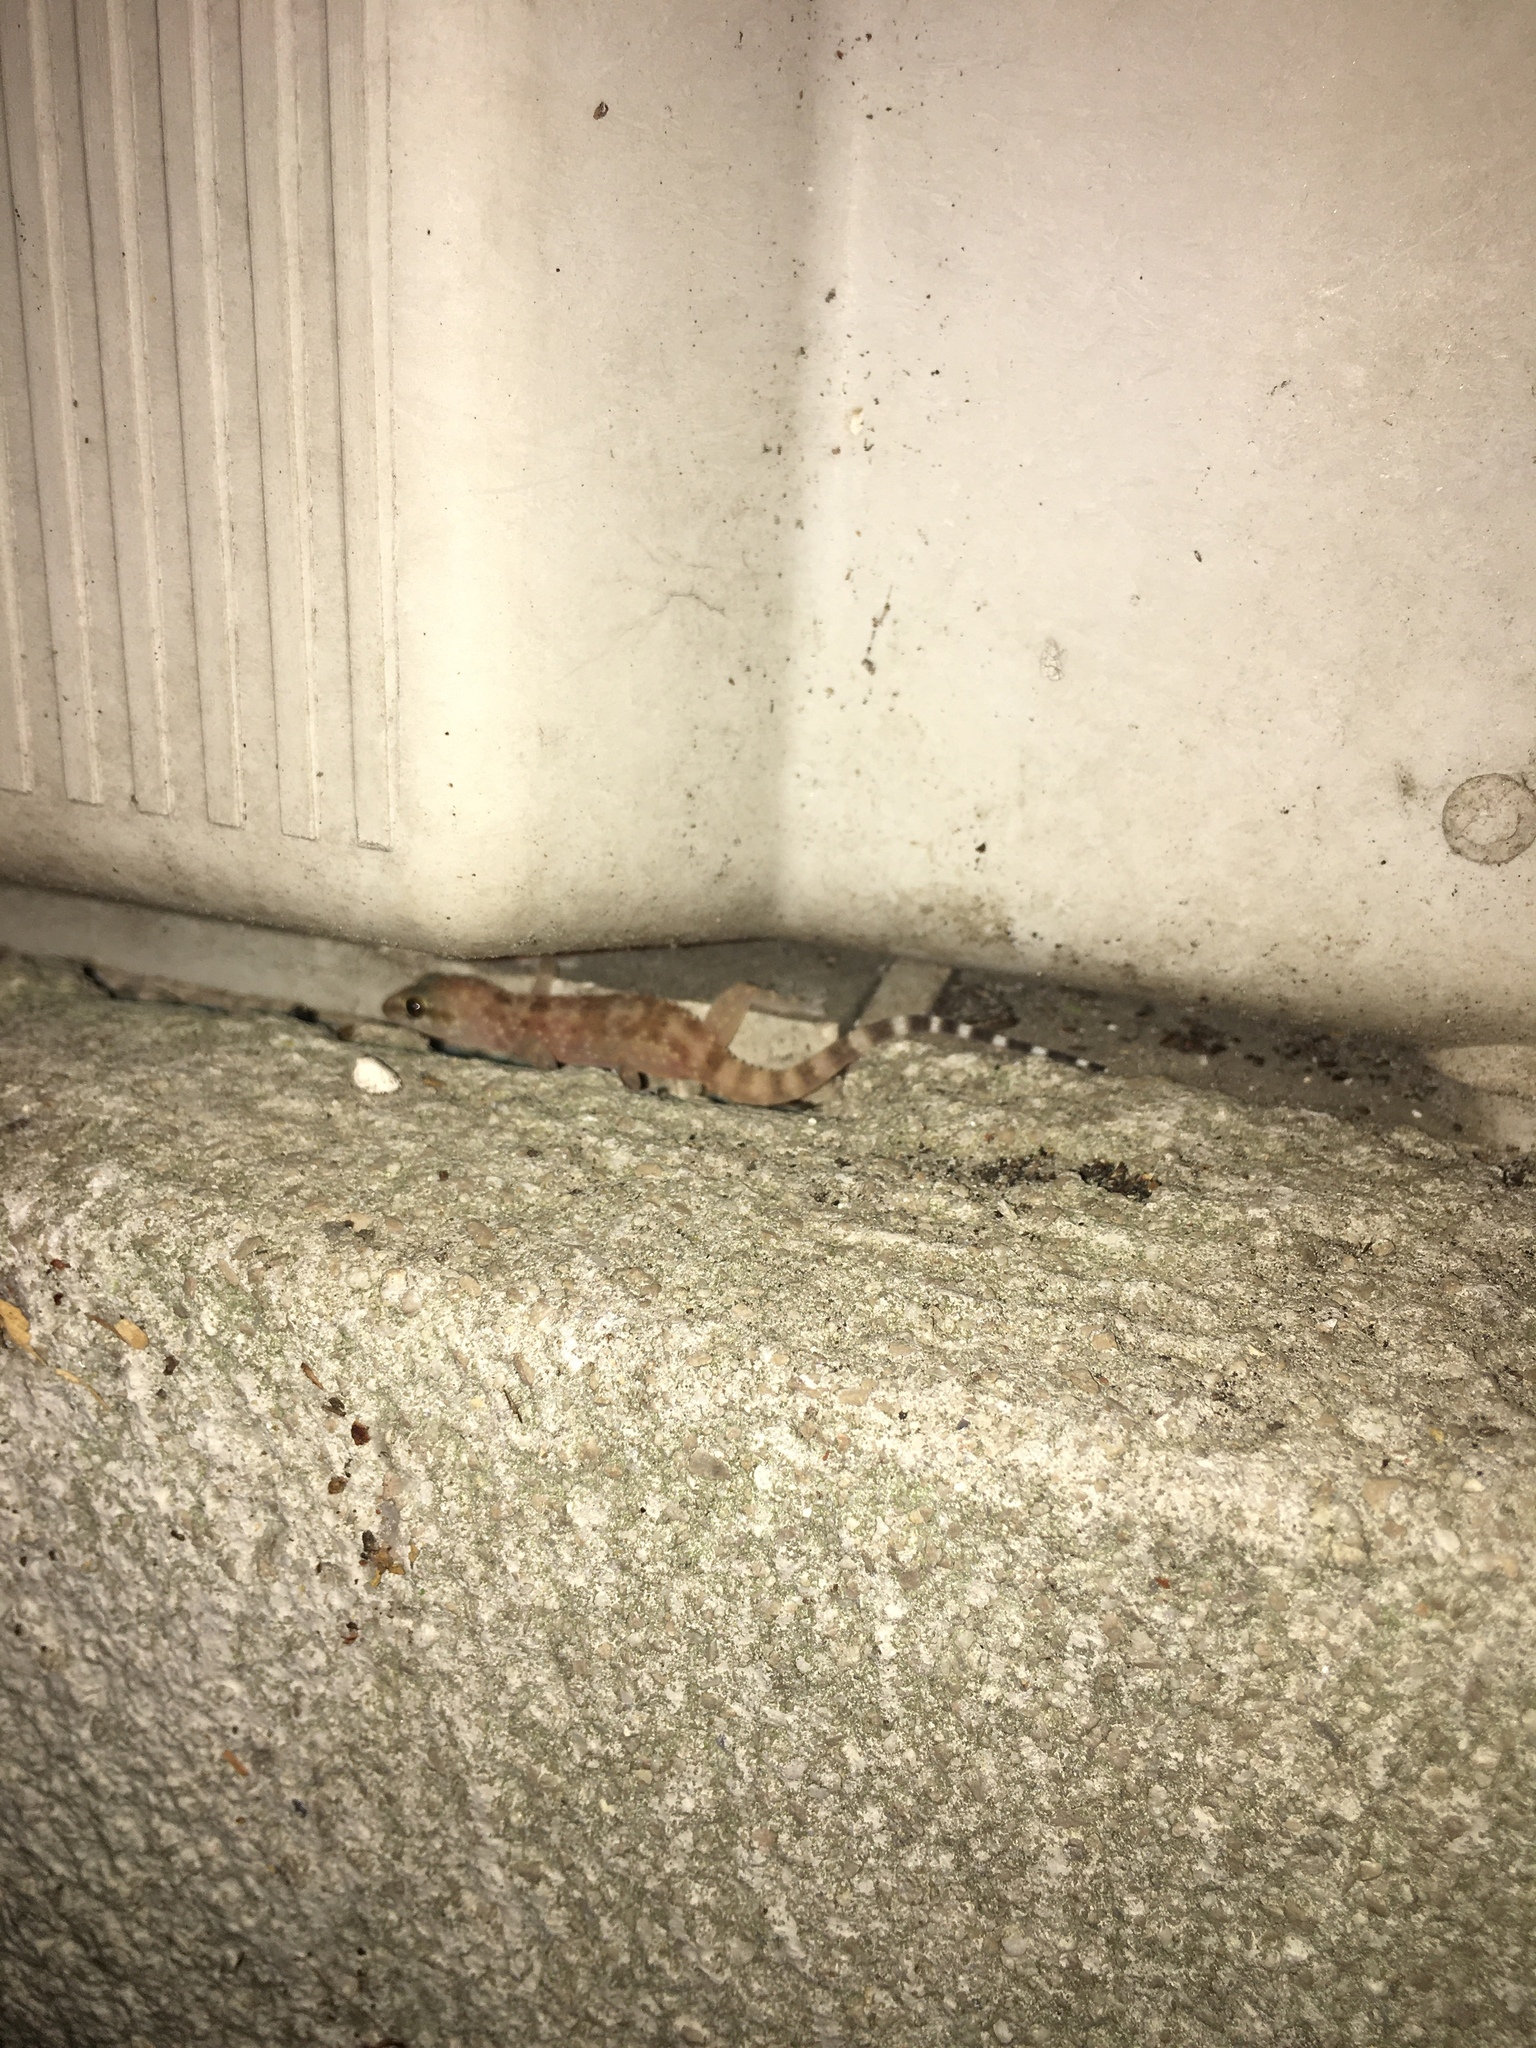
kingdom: Animalia
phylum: Chordata
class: Squamata
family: Gekkonidae
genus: Hemidactylus
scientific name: Hemidactylus turcicus
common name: Turkish gecko
